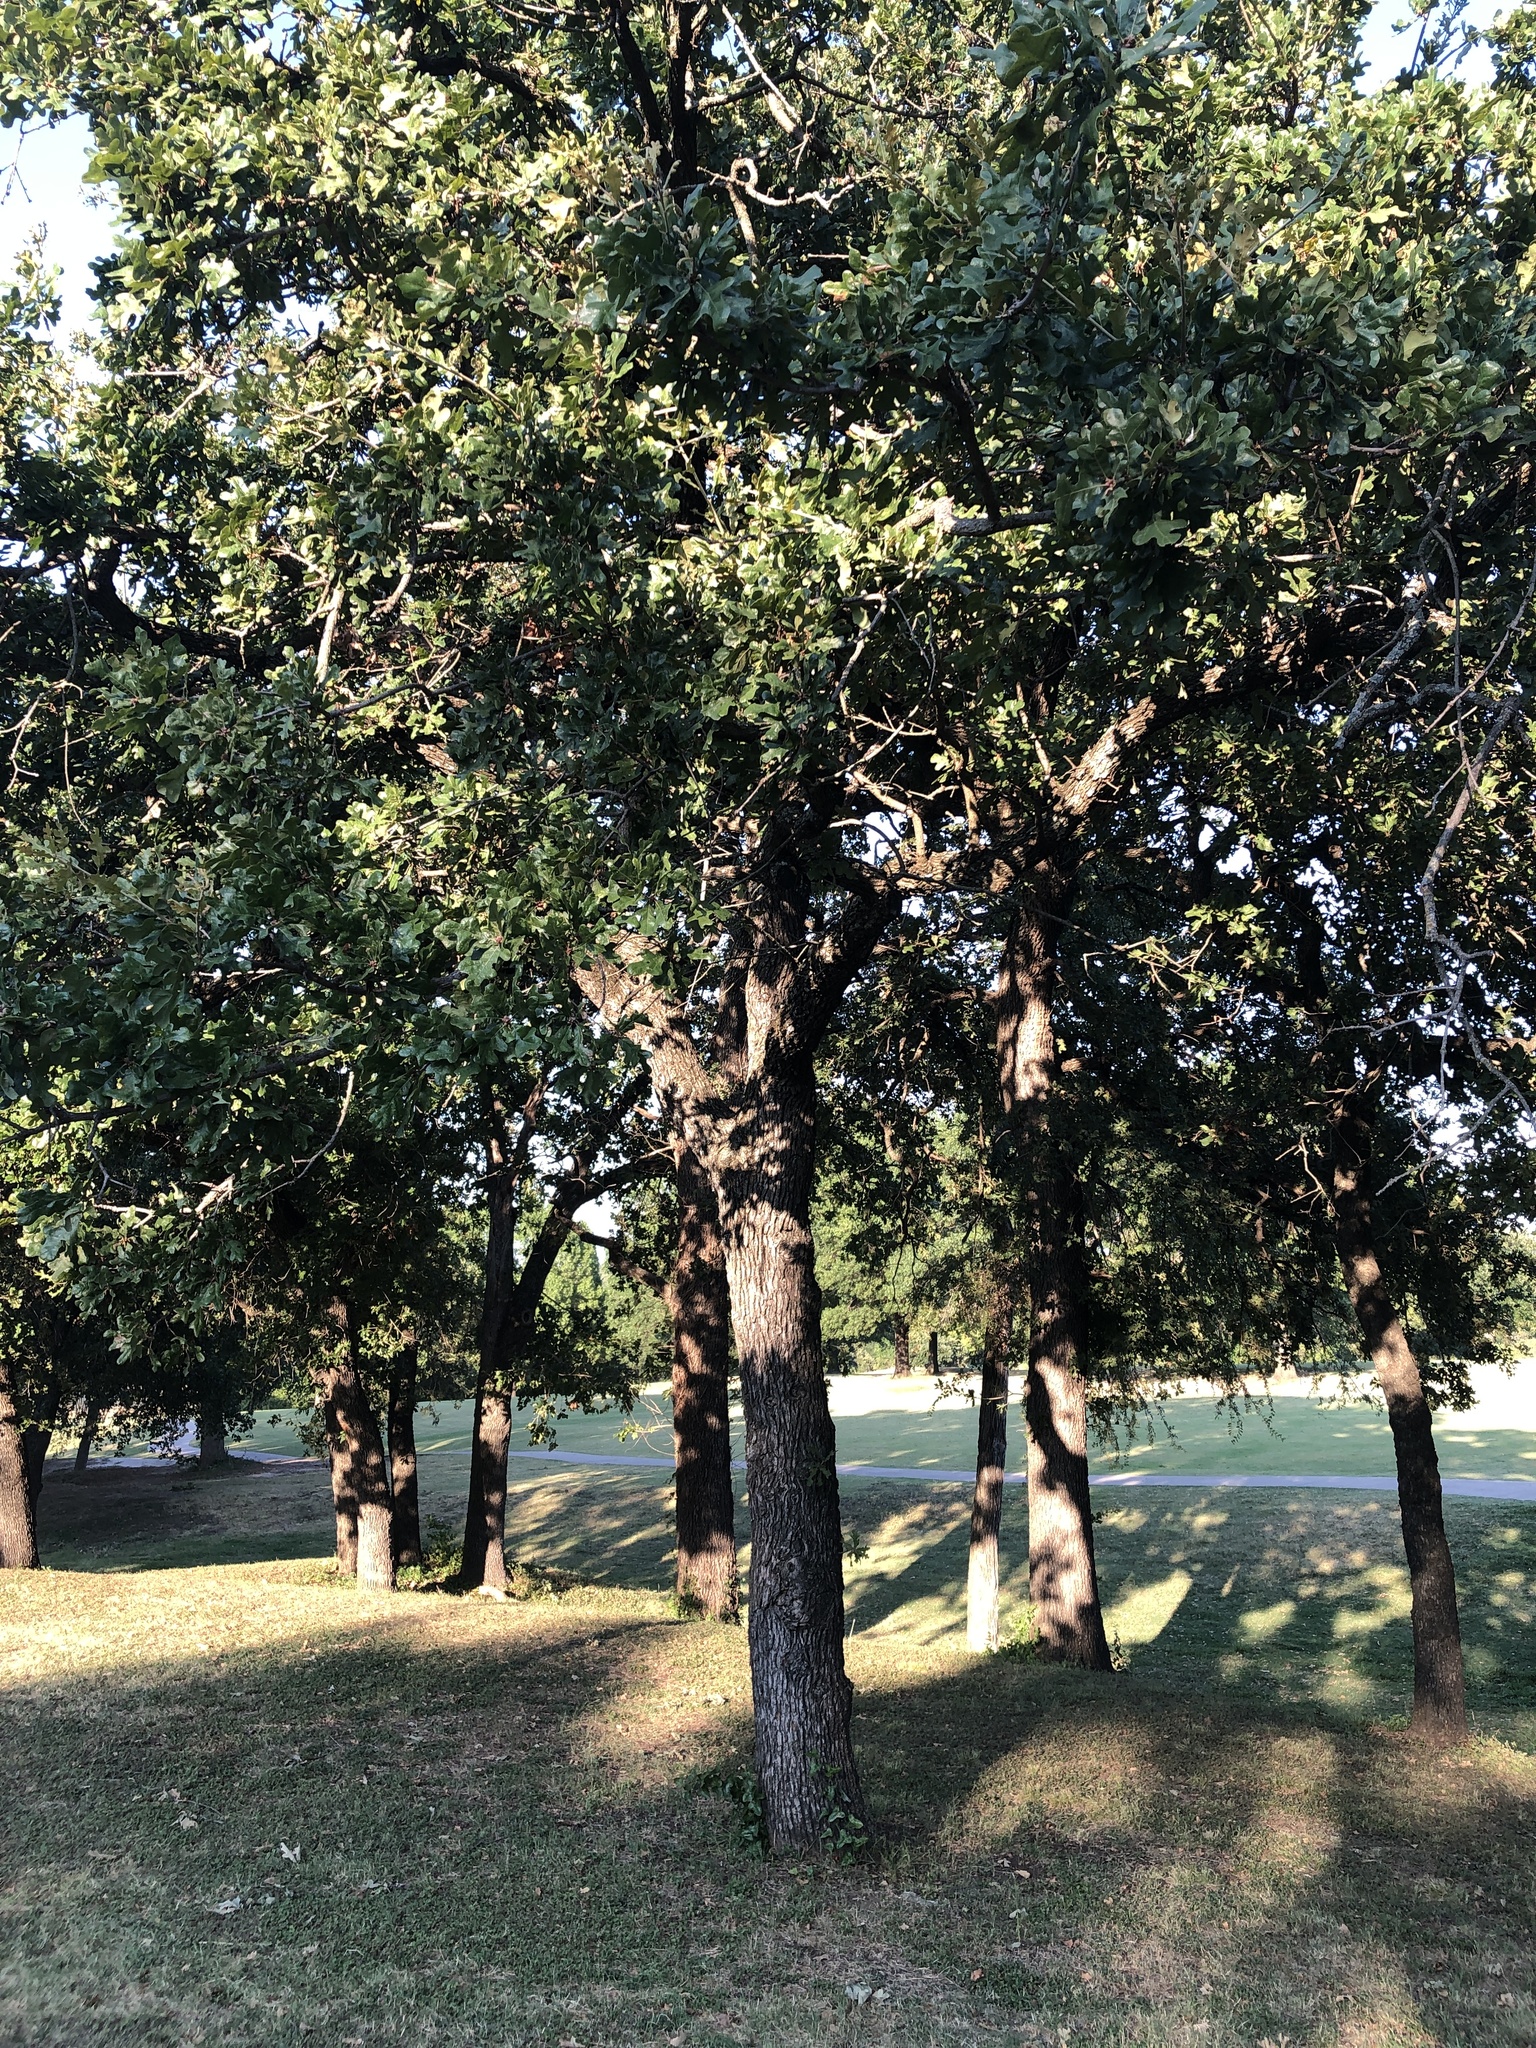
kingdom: Plantae
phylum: Tracheophyta
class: Magnoliopsida
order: Fagales
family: Fagaceae
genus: Quercus
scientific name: Quercus stellata
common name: Post oak
